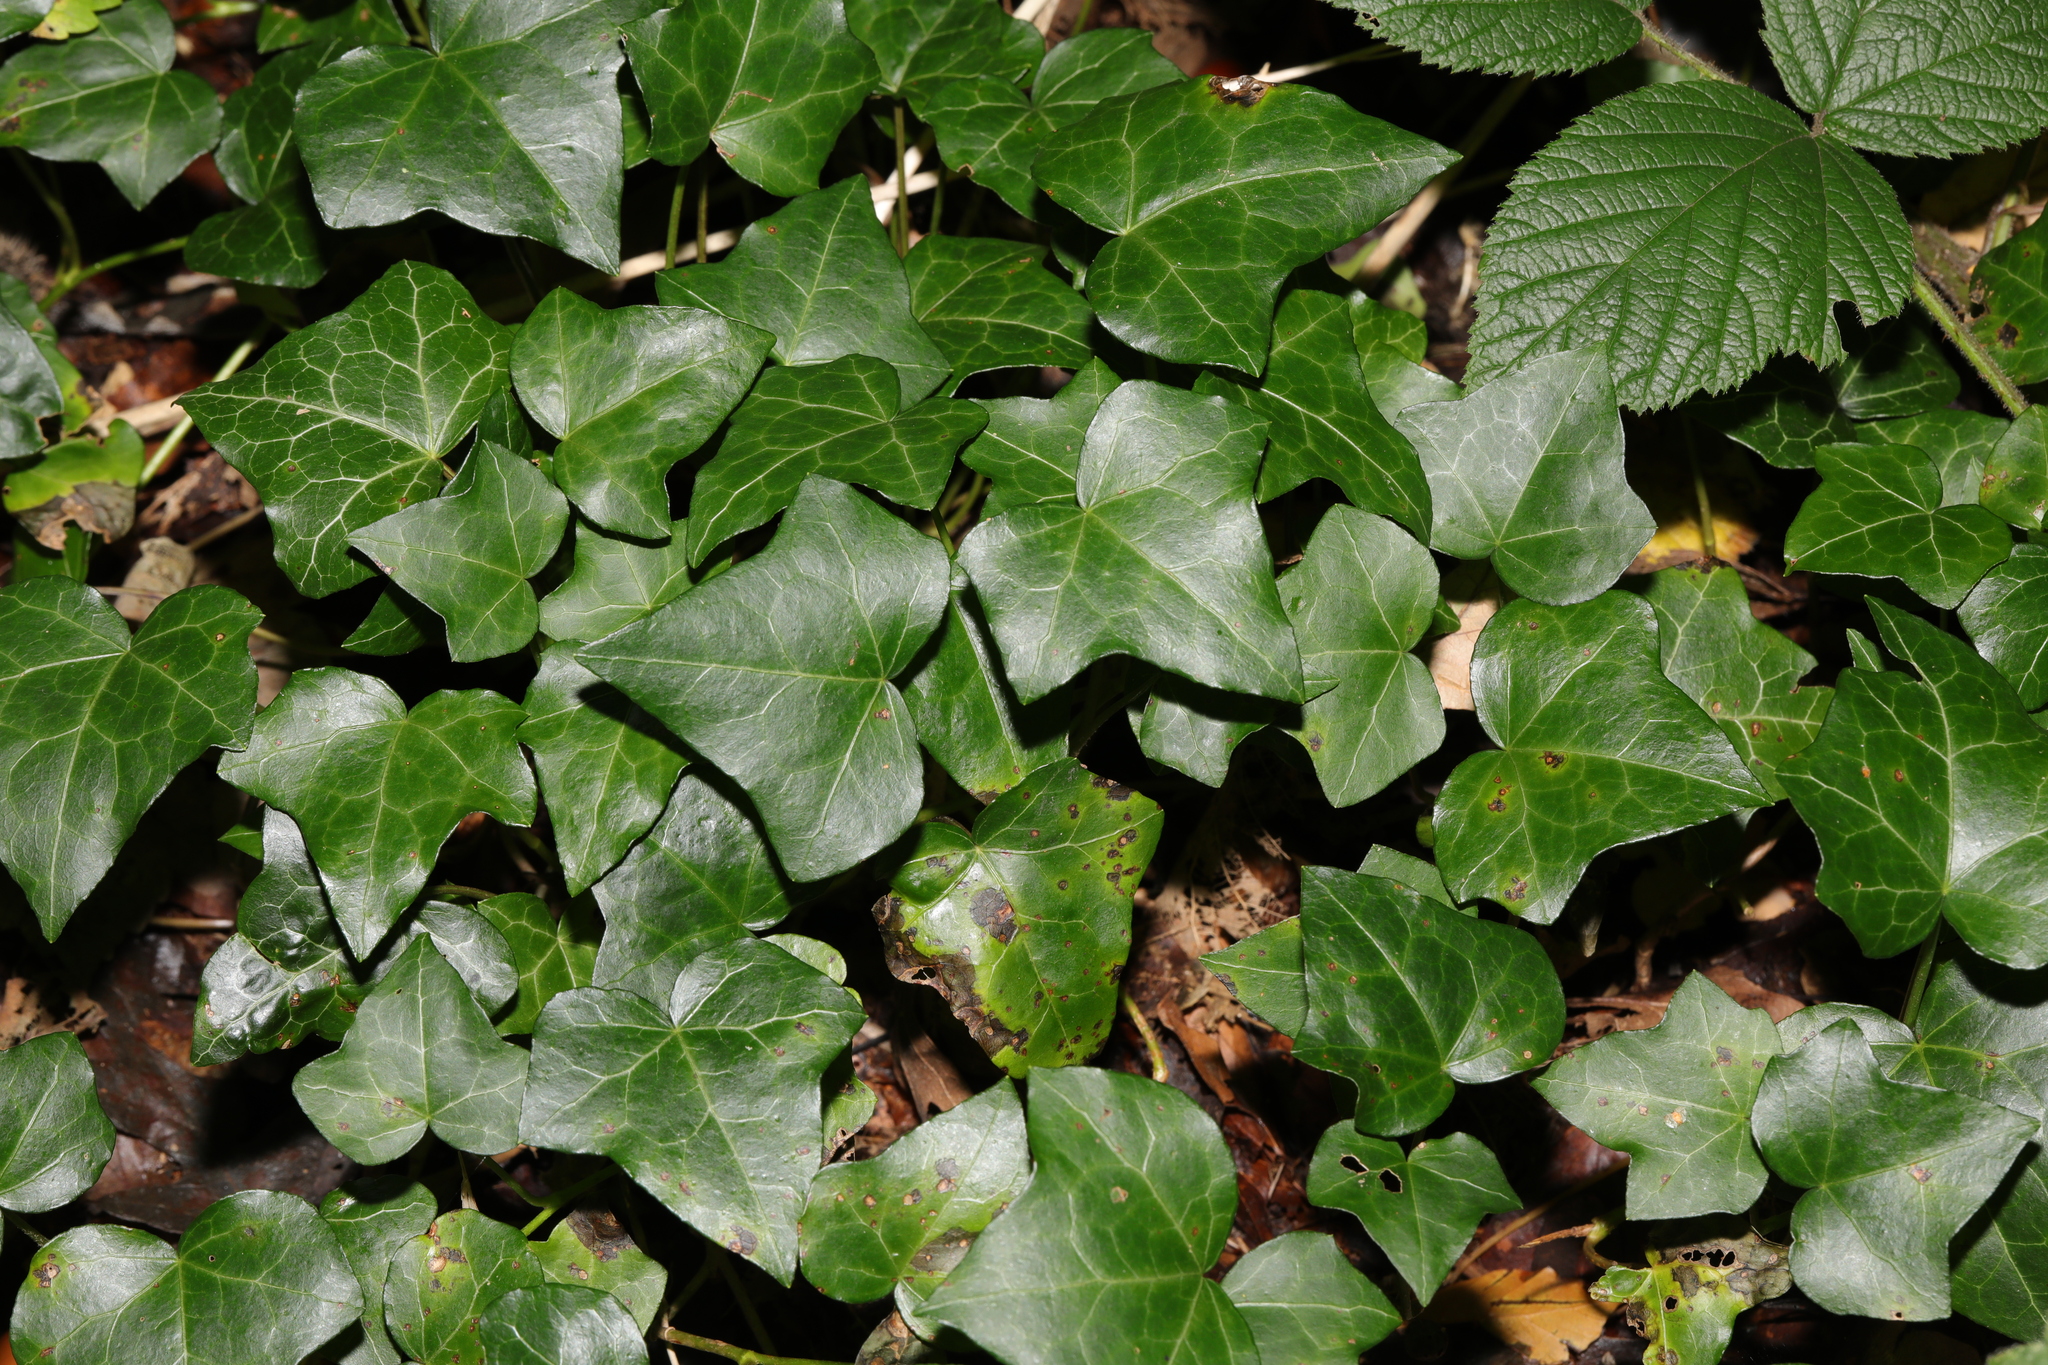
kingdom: Plantae
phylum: Tracheophyta
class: Magnoliopsida
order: Apiales
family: Araliaceae
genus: Hedera
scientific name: Hedera helix
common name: Ivy
